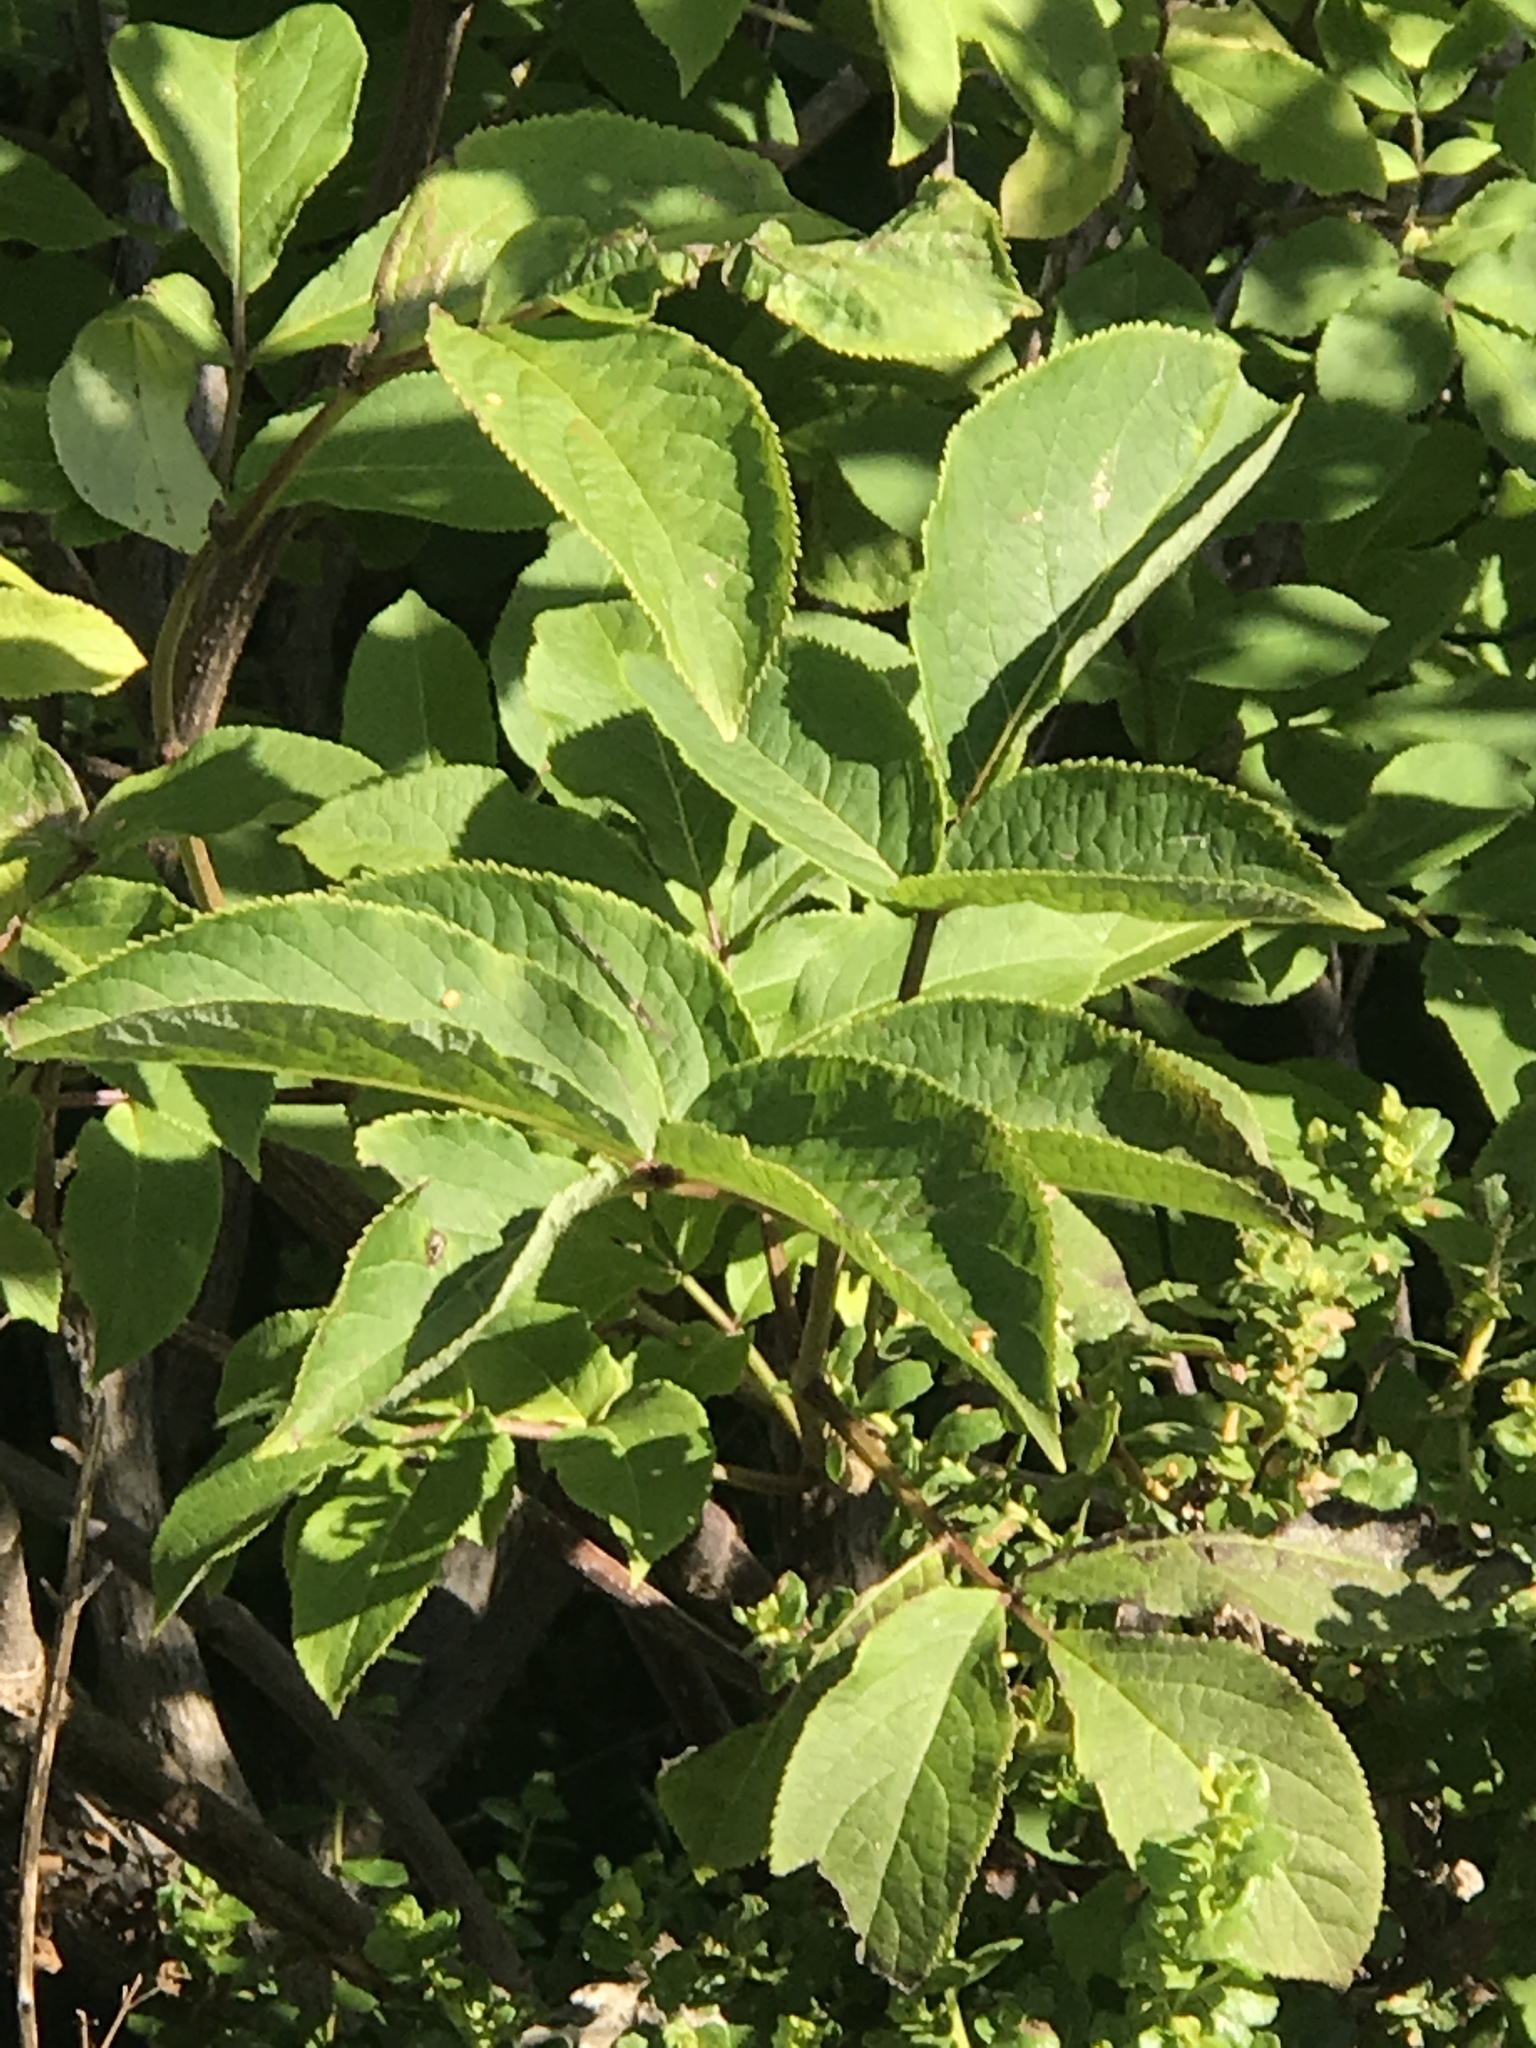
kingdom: Plantae
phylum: Tracheophyta
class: Magnoliopsida
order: Dipsacales
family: Viburnaceae
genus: Sambucus
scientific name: Sambucus racemosa
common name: Red-berried elder
